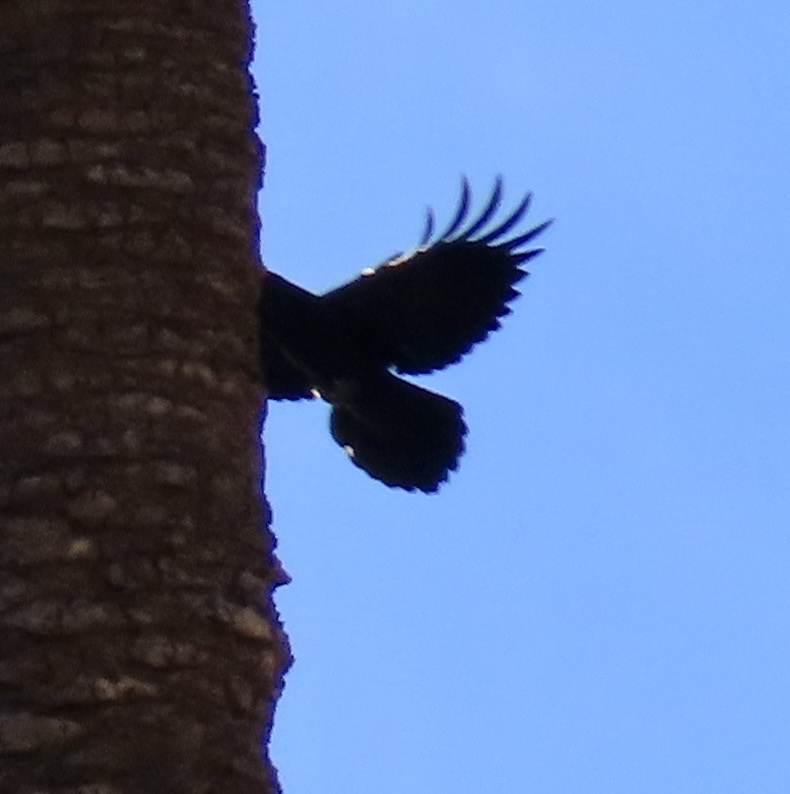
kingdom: Animalia
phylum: Chordata
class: Aves
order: Passeriformes
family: Corvidae
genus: Corvus
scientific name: Corvus corax
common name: Common raven
